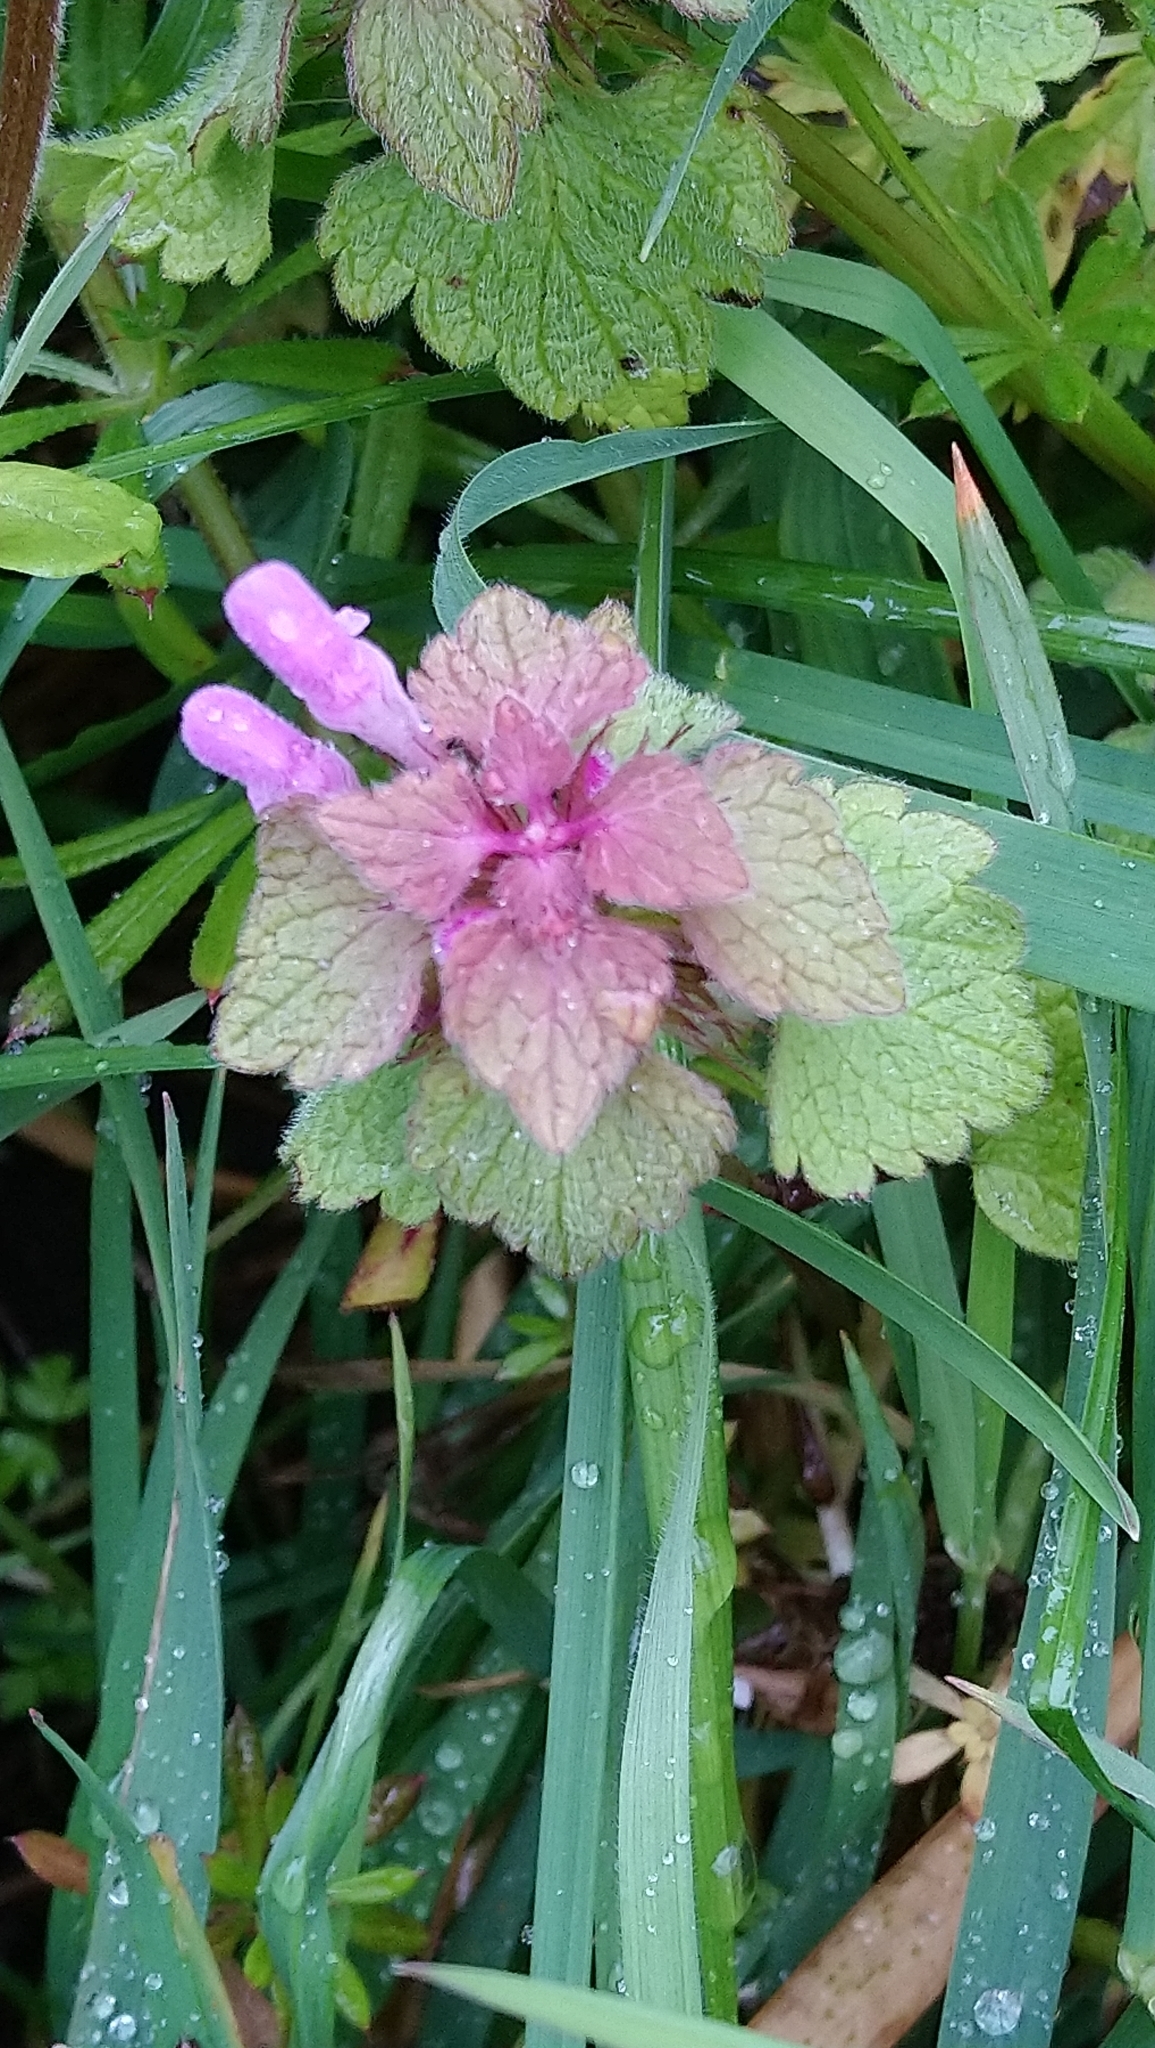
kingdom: Plantae
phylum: Tracheophyta
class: Magnoliopsida
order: Lamiales
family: Lamiaceae
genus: Lamium
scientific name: Lamium purpureum
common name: Red dead-nettle
